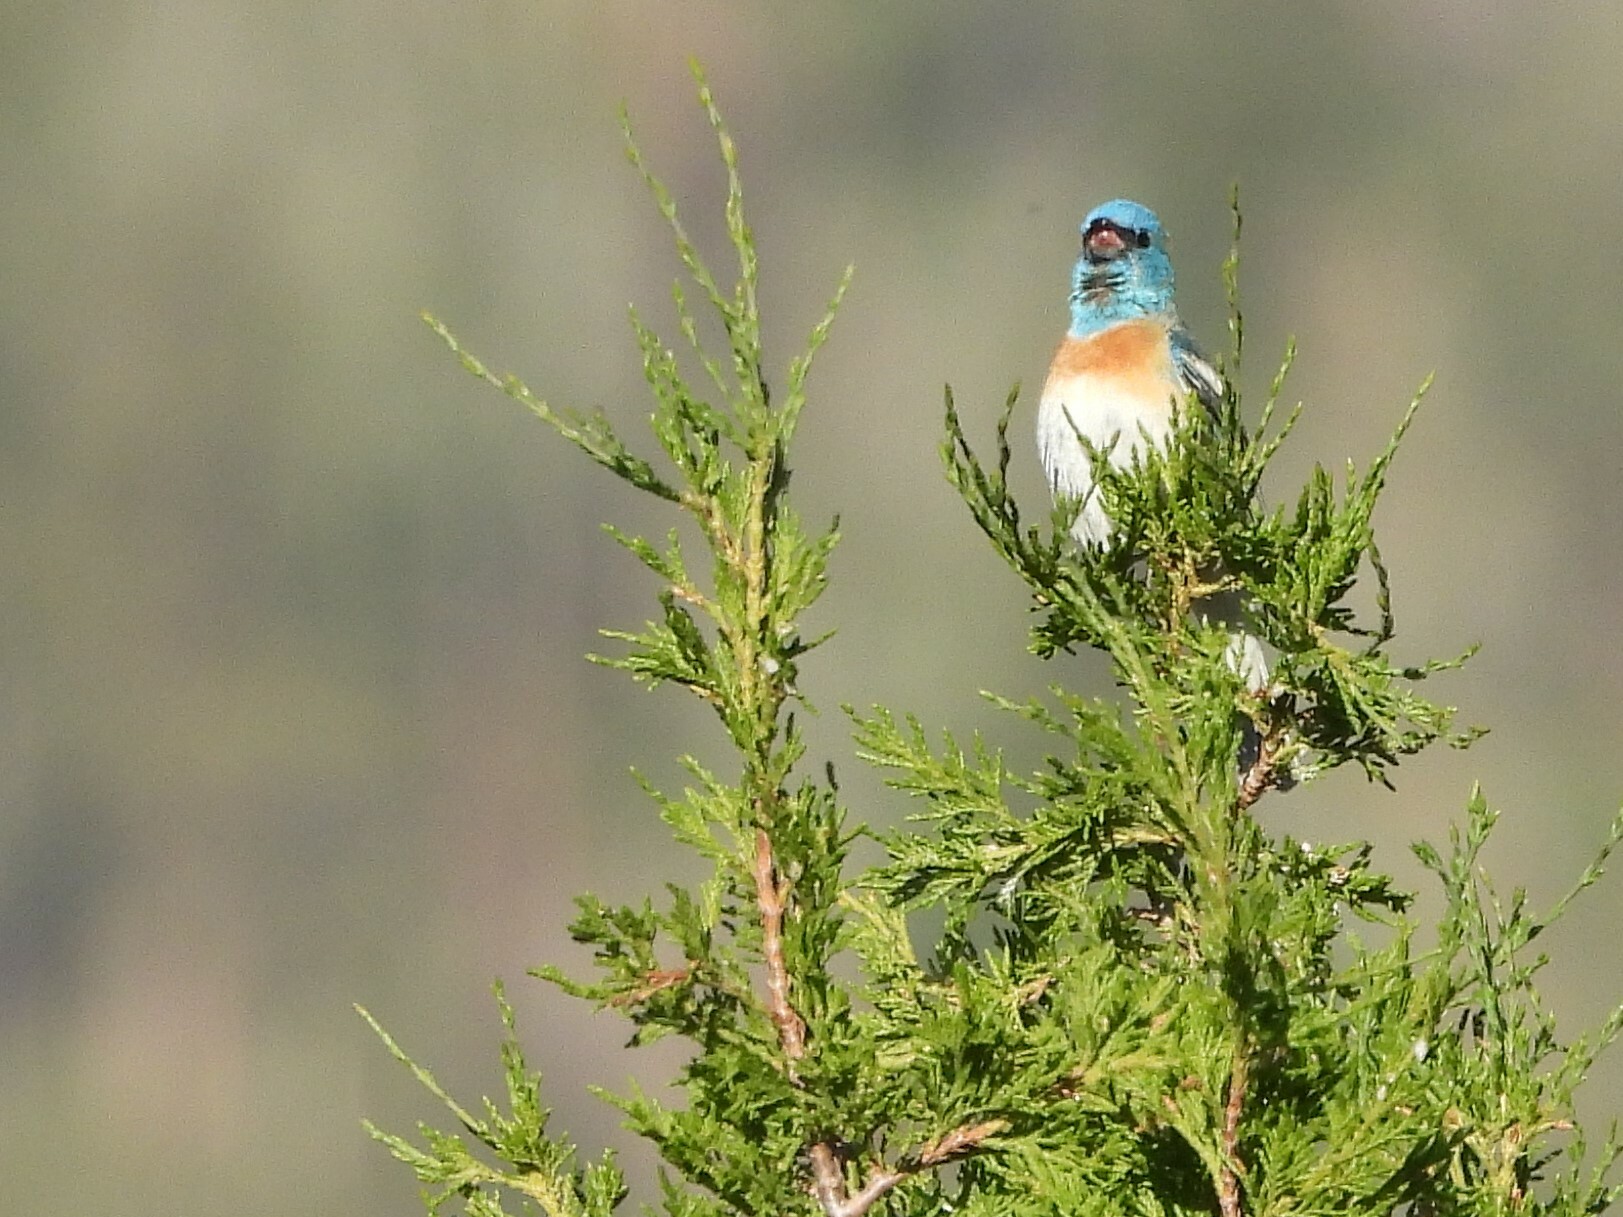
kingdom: Animalia
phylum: Chordata
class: Aves
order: Passeriformes
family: Cardinalidae
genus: Passerina
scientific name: Passerina amoena
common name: Lazuli bunting
